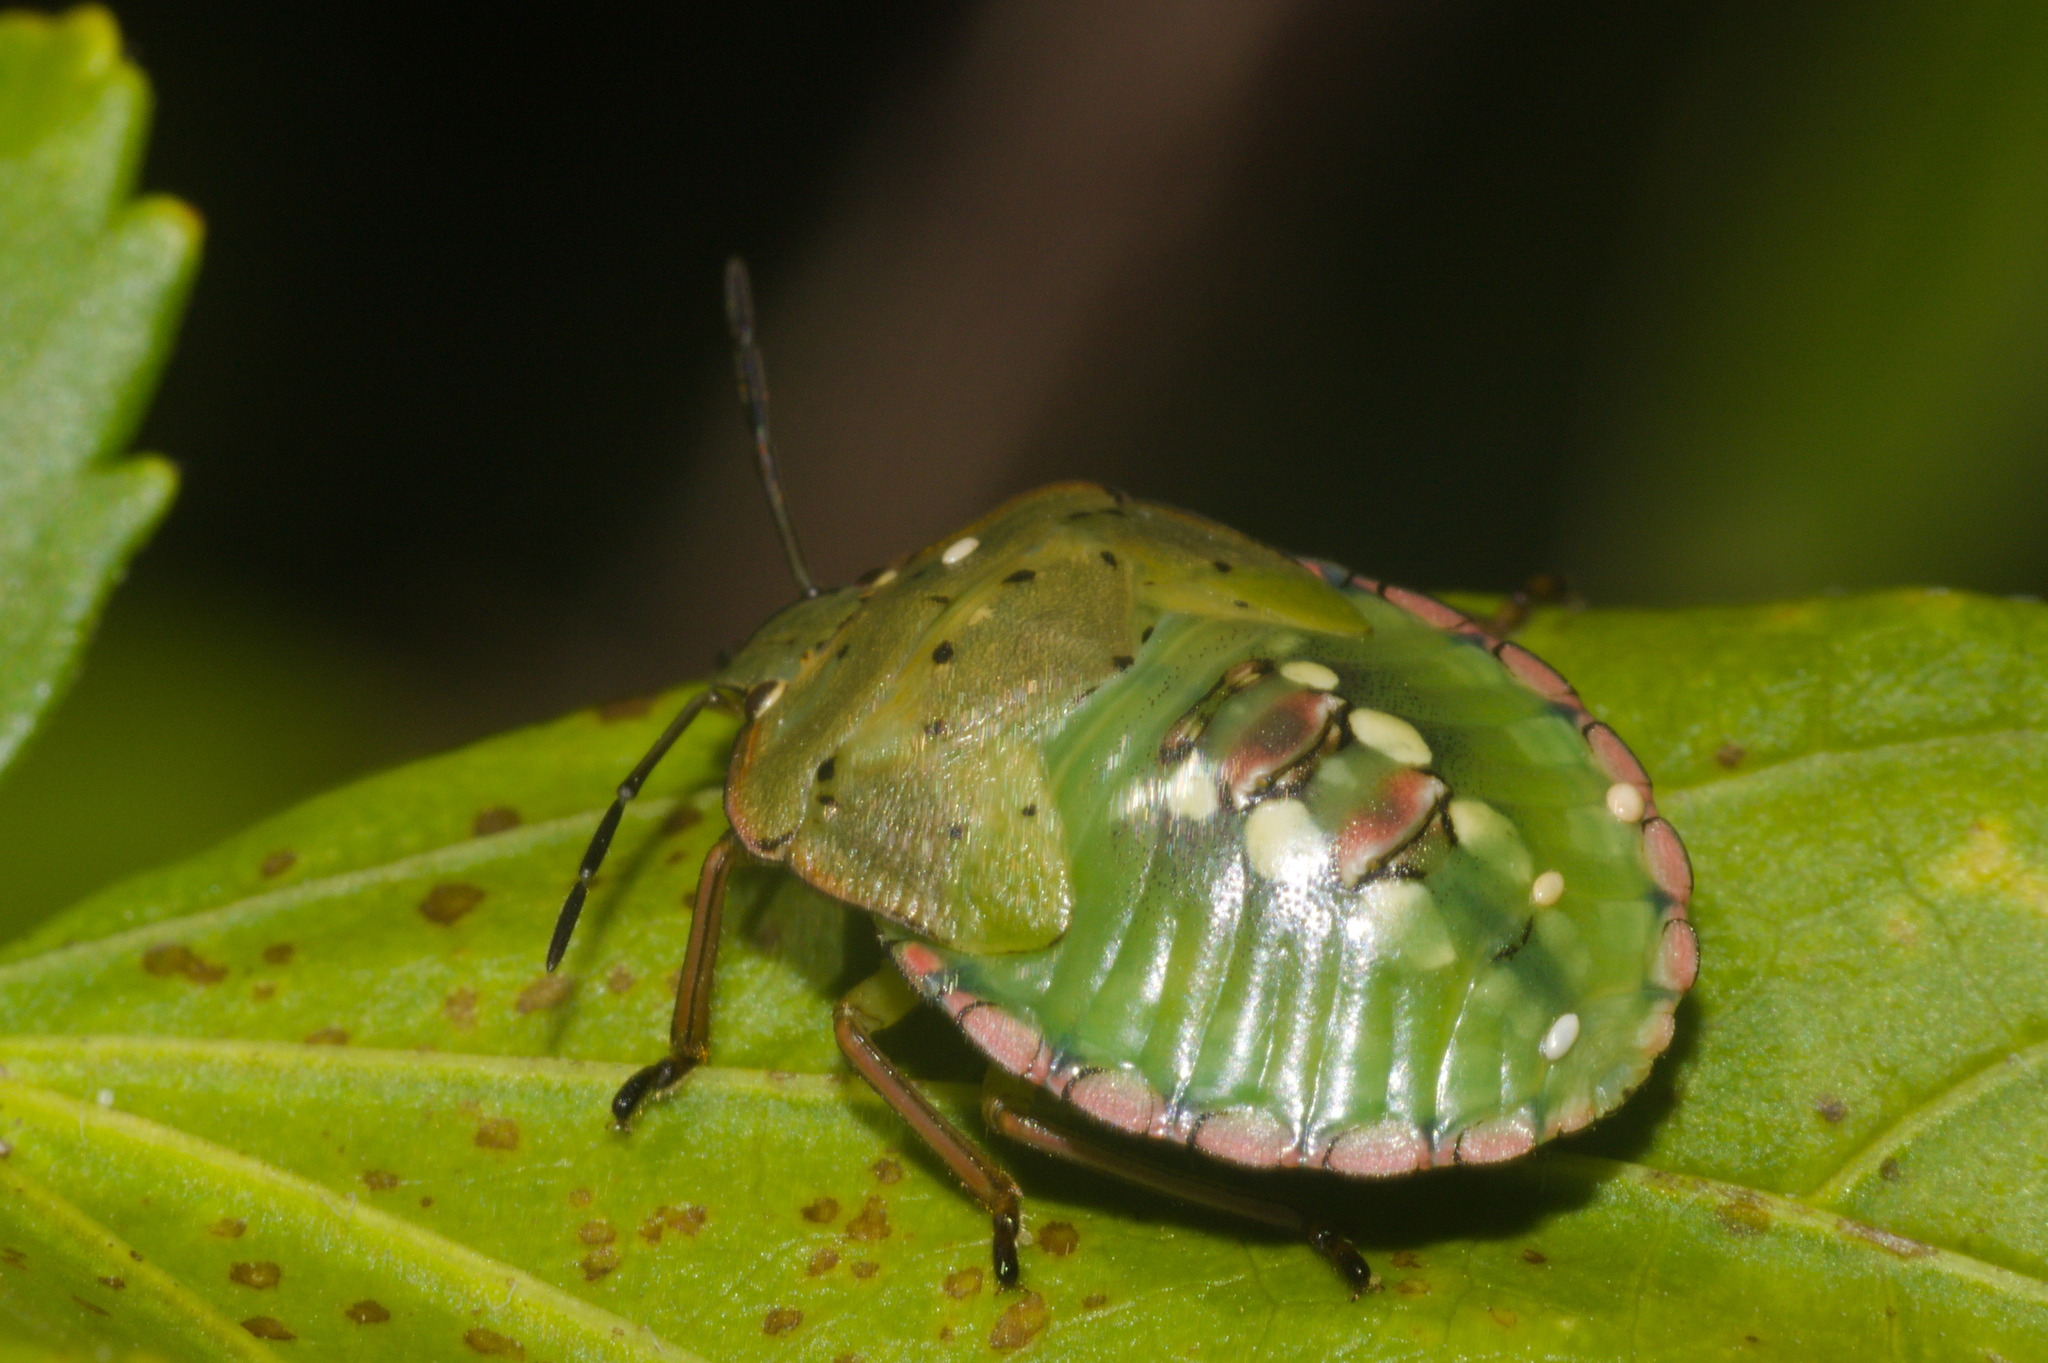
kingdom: Animalia
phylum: Arthropoda
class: Insecta
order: Hemiptera
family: Pentatomidae
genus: Nezara
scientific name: Nezara viridula
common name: Southern green stink bug
